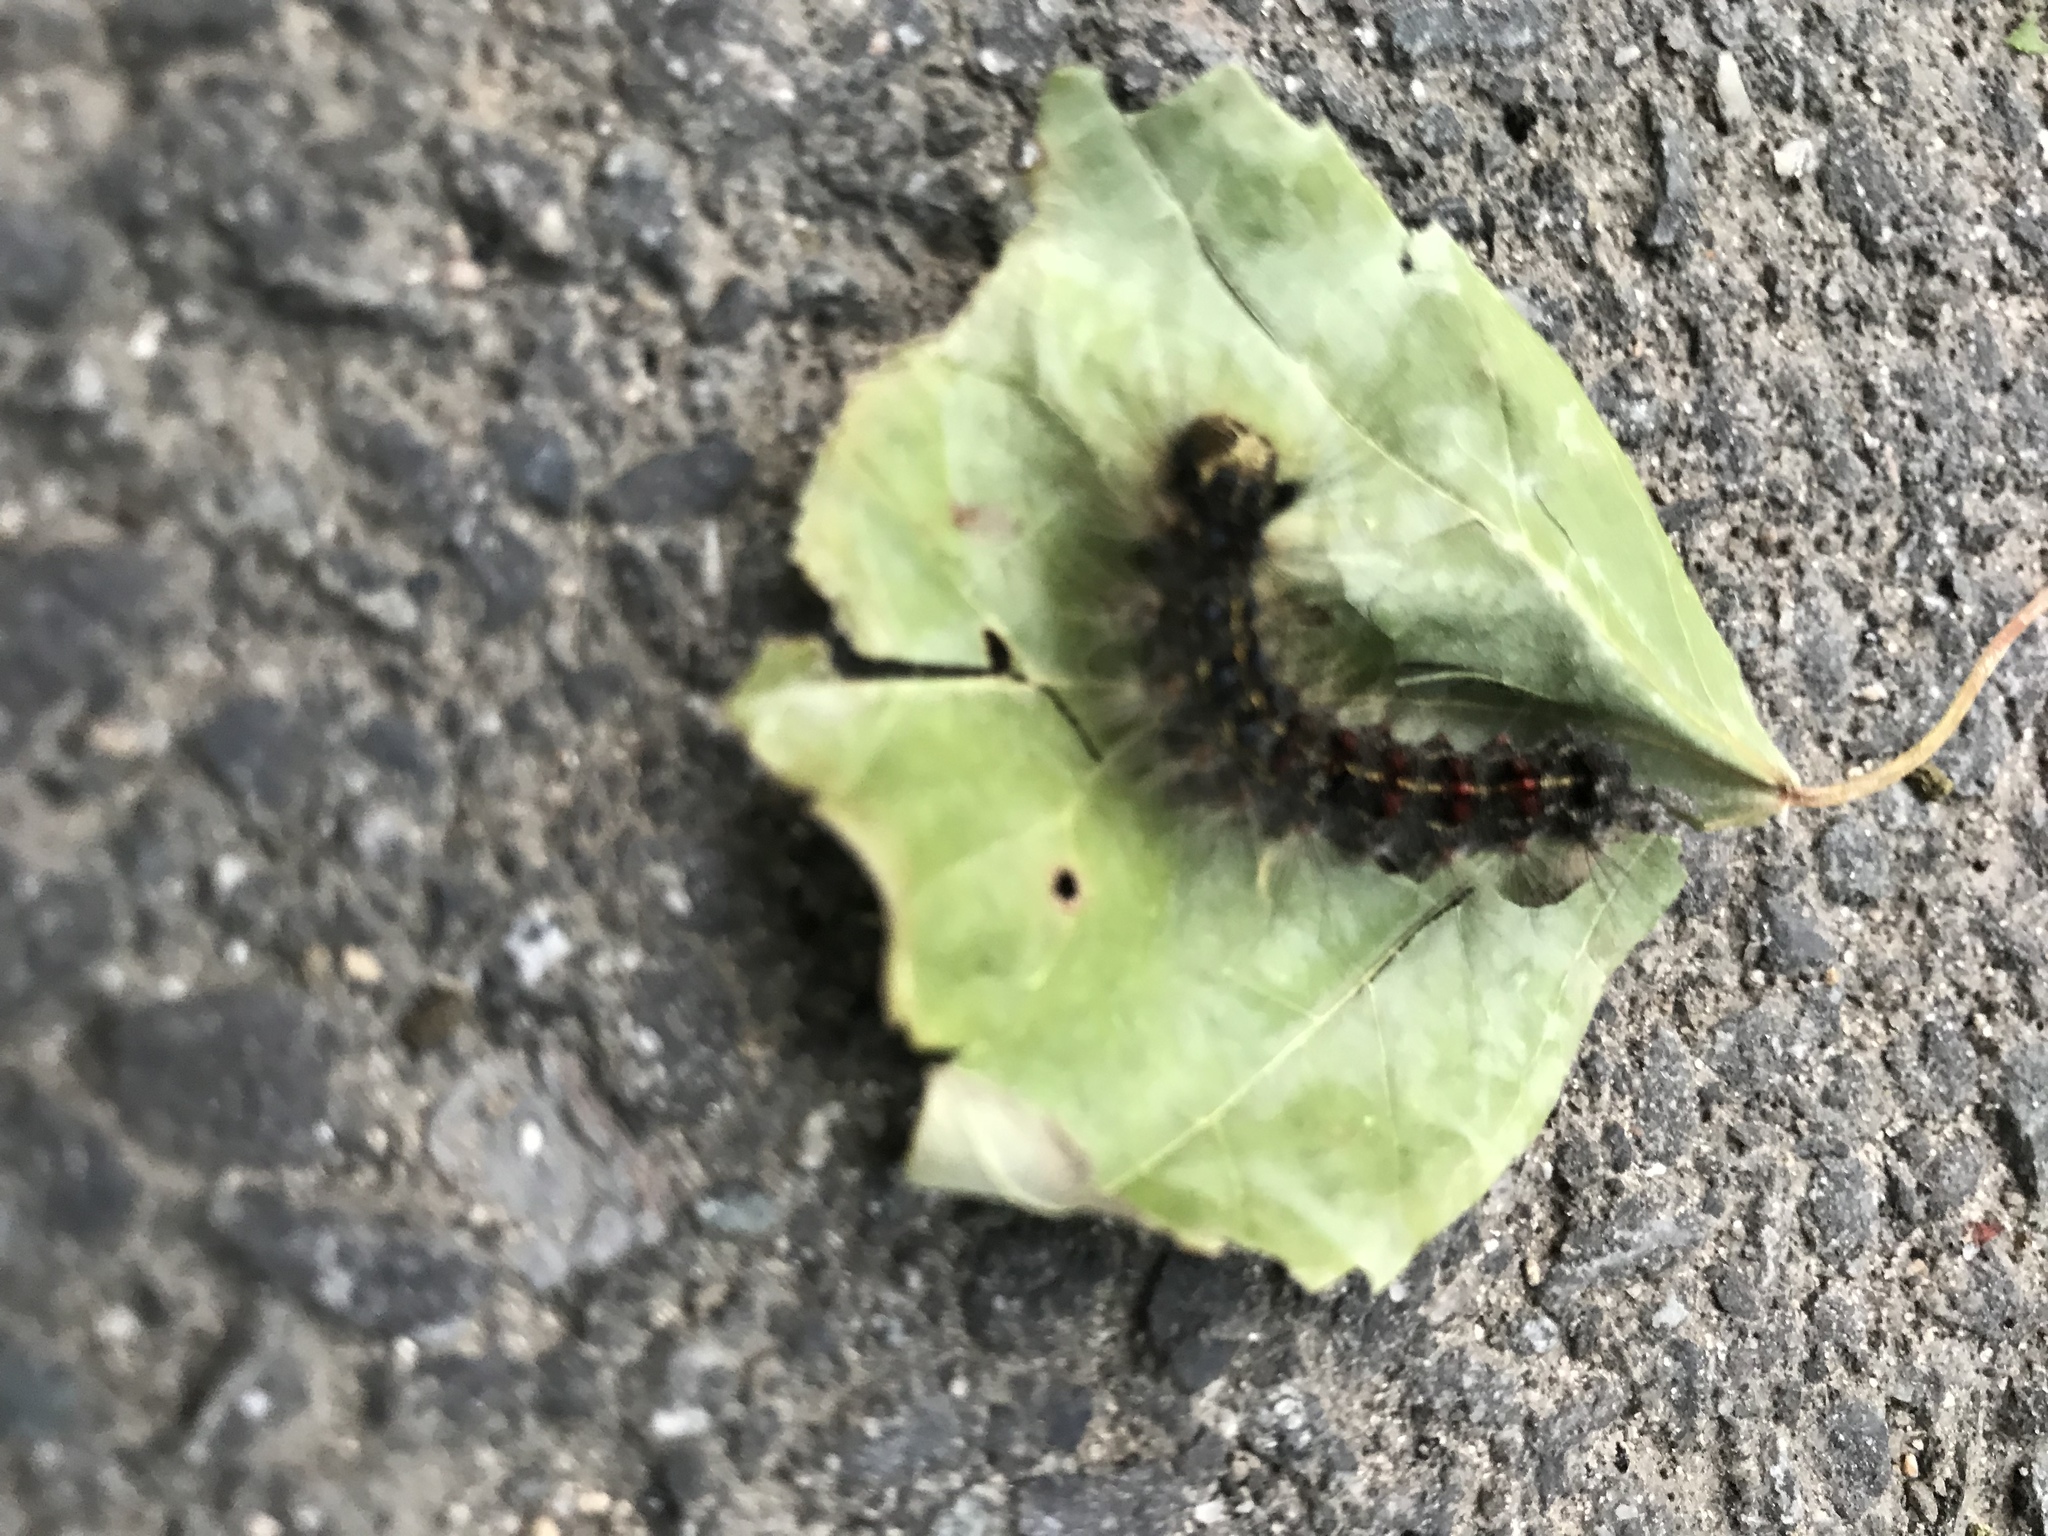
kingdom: Animalia
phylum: Arthropoda
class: Insecta
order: Lepidoptera
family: Erebidae
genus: Lymantria
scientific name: Lymantria dispar
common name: Gypsy moth
